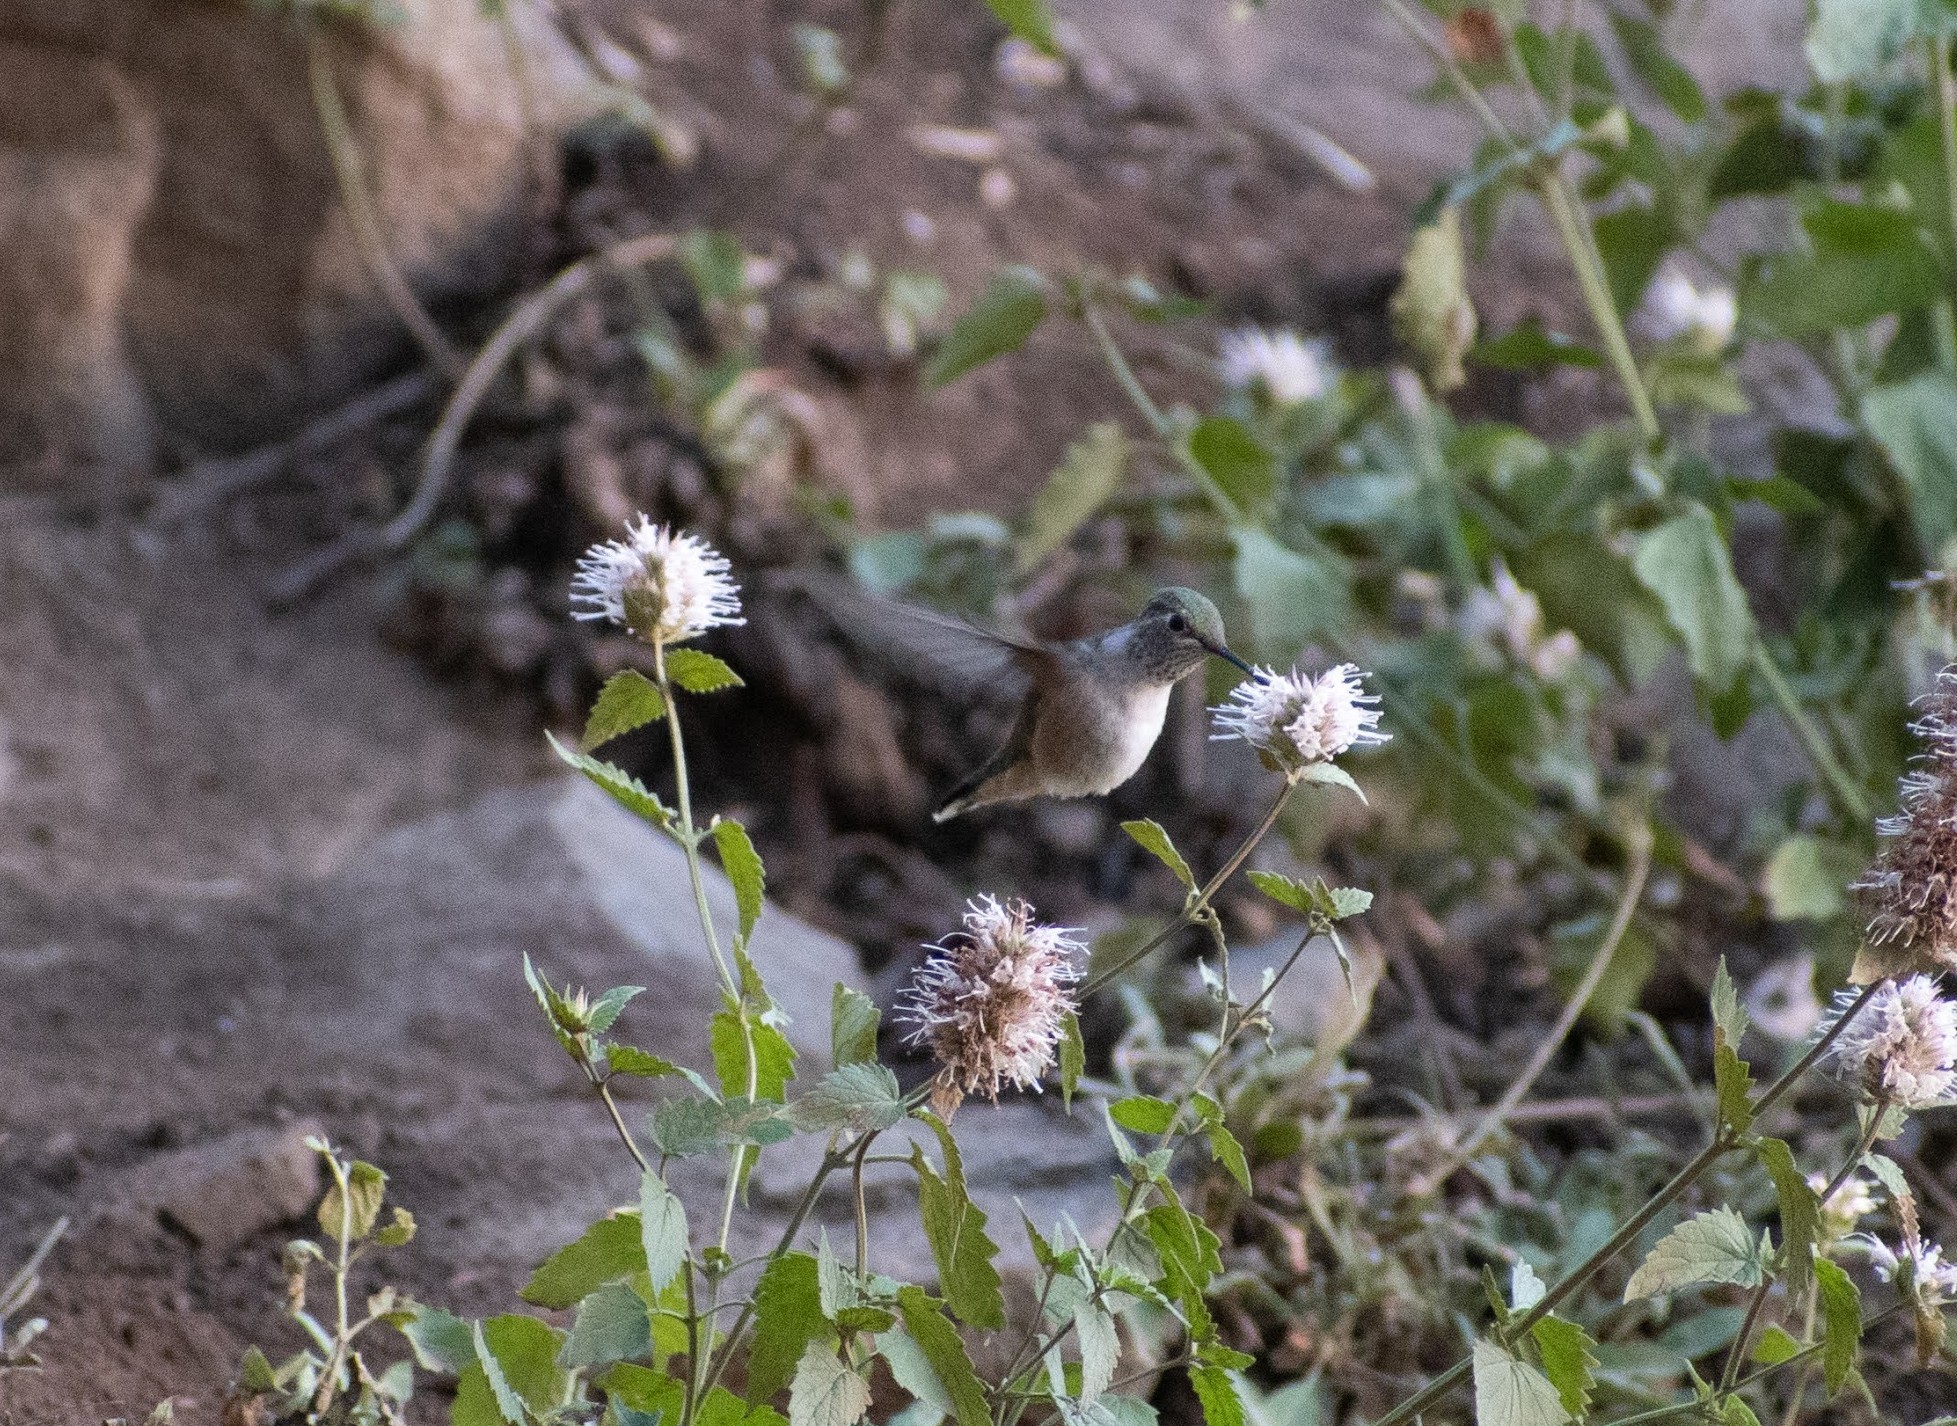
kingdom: Animalia
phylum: Chordata
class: Aves
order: Apodiformes
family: Trochilidae
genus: Selasphorus
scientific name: Selasphorus platycercus
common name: Broad-tailed hummingbird
